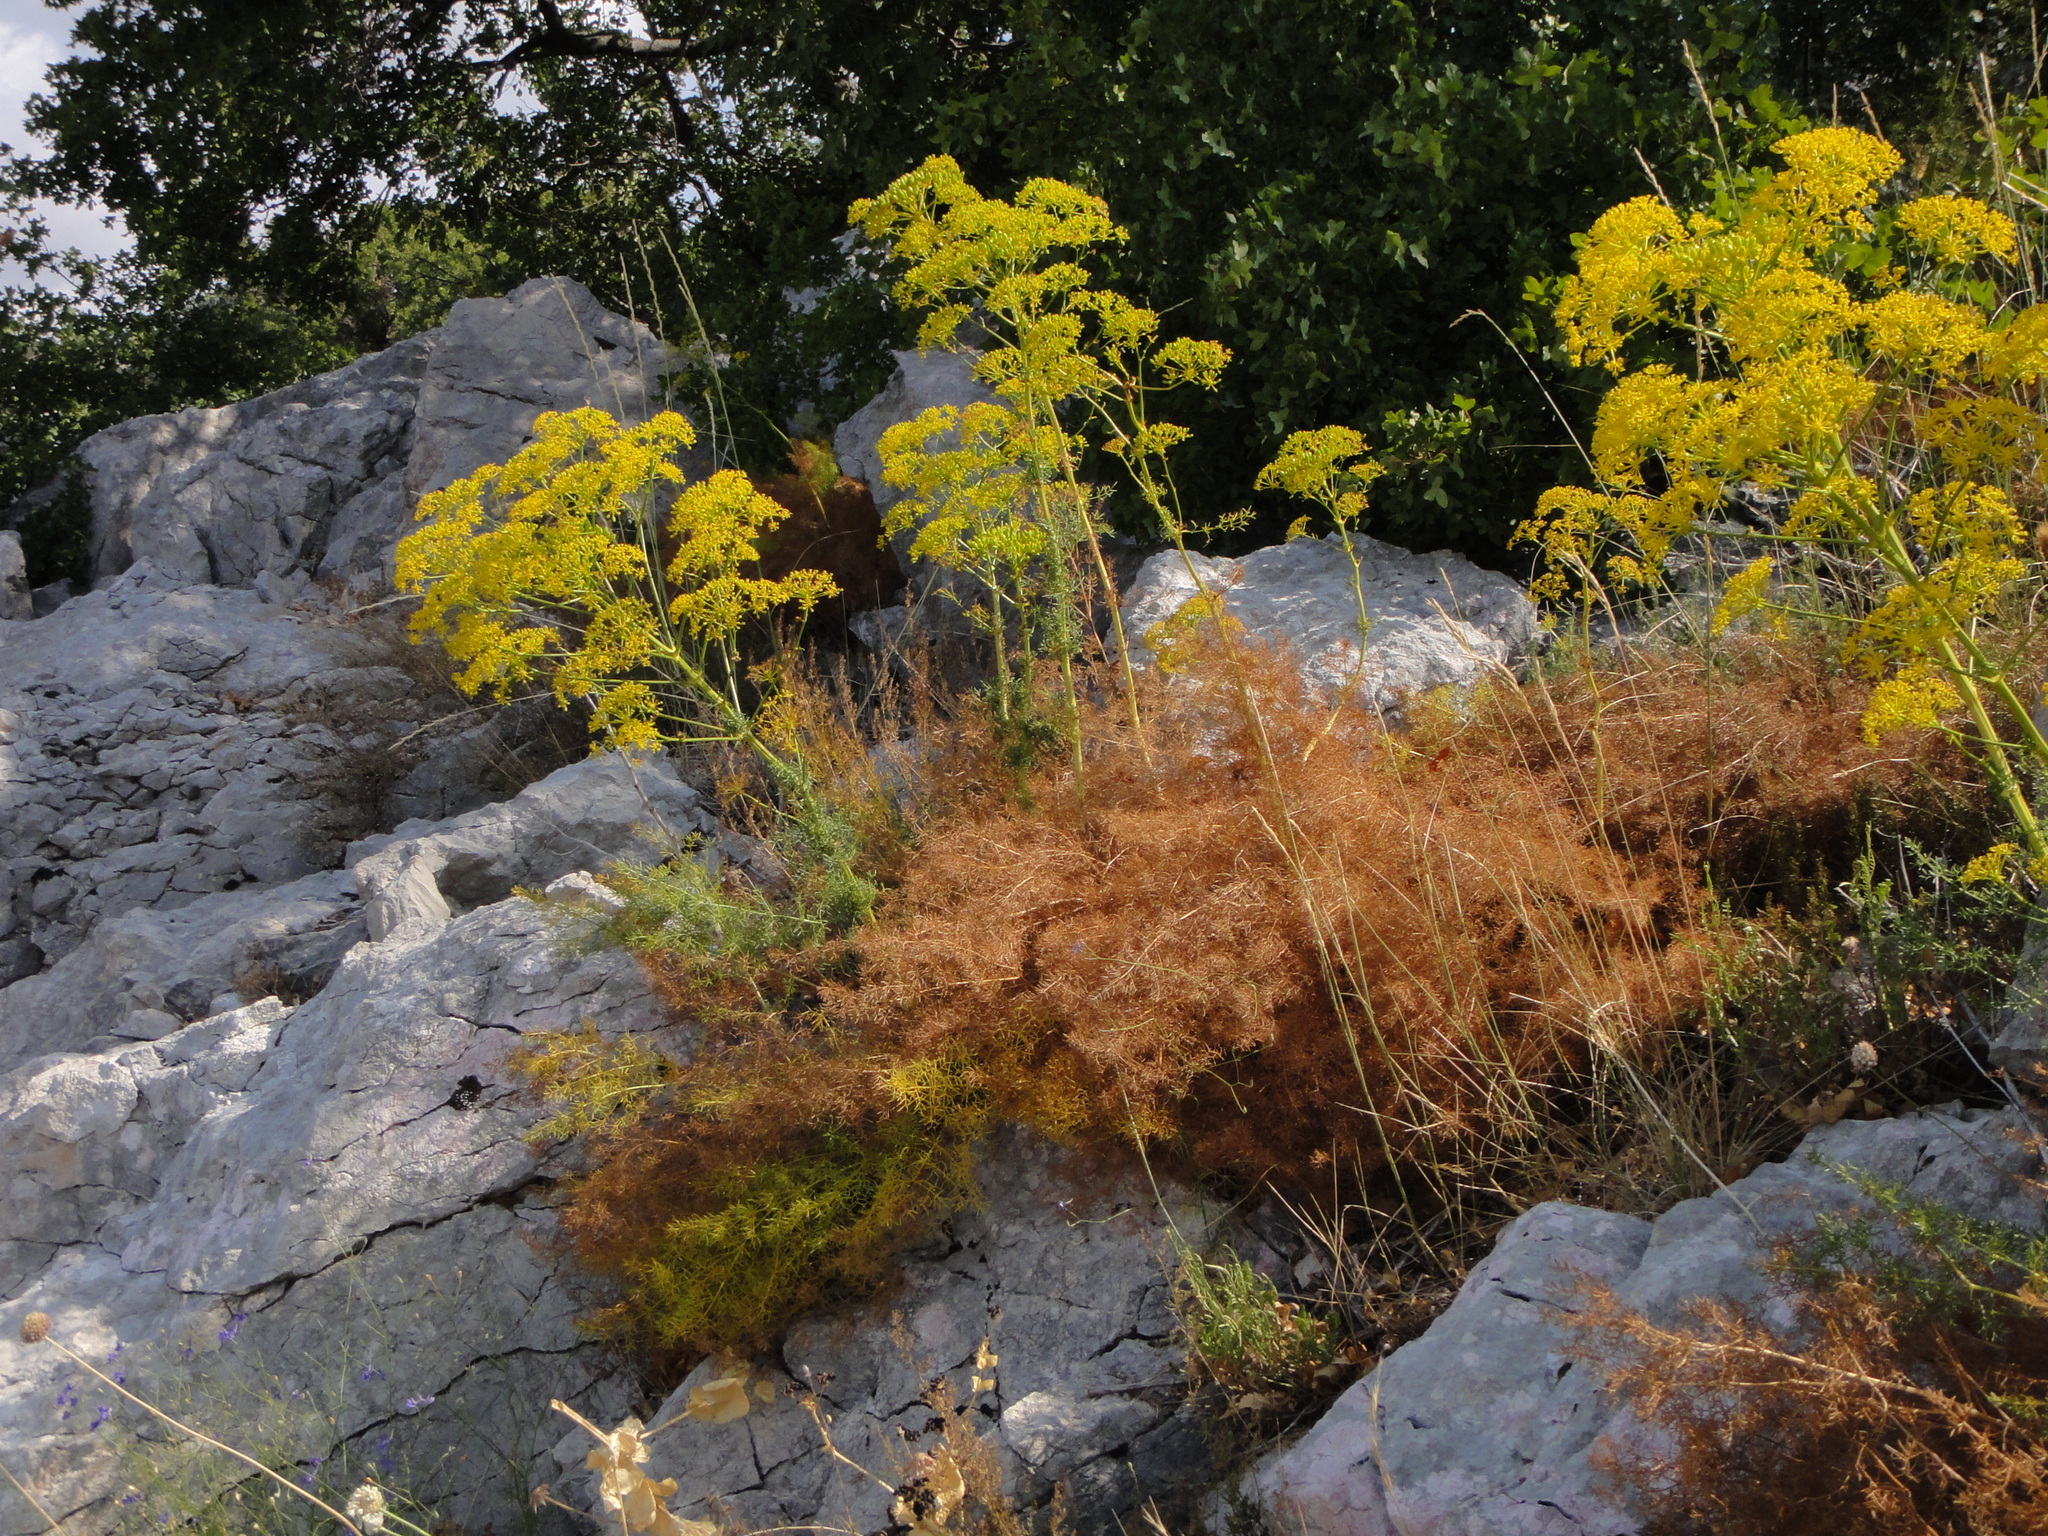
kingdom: Plantae
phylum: Tracheophyta
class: Magnoliopsida
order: Apiales
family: Apiaceae
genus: Ferulago
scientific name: Ferulago galbanifera
